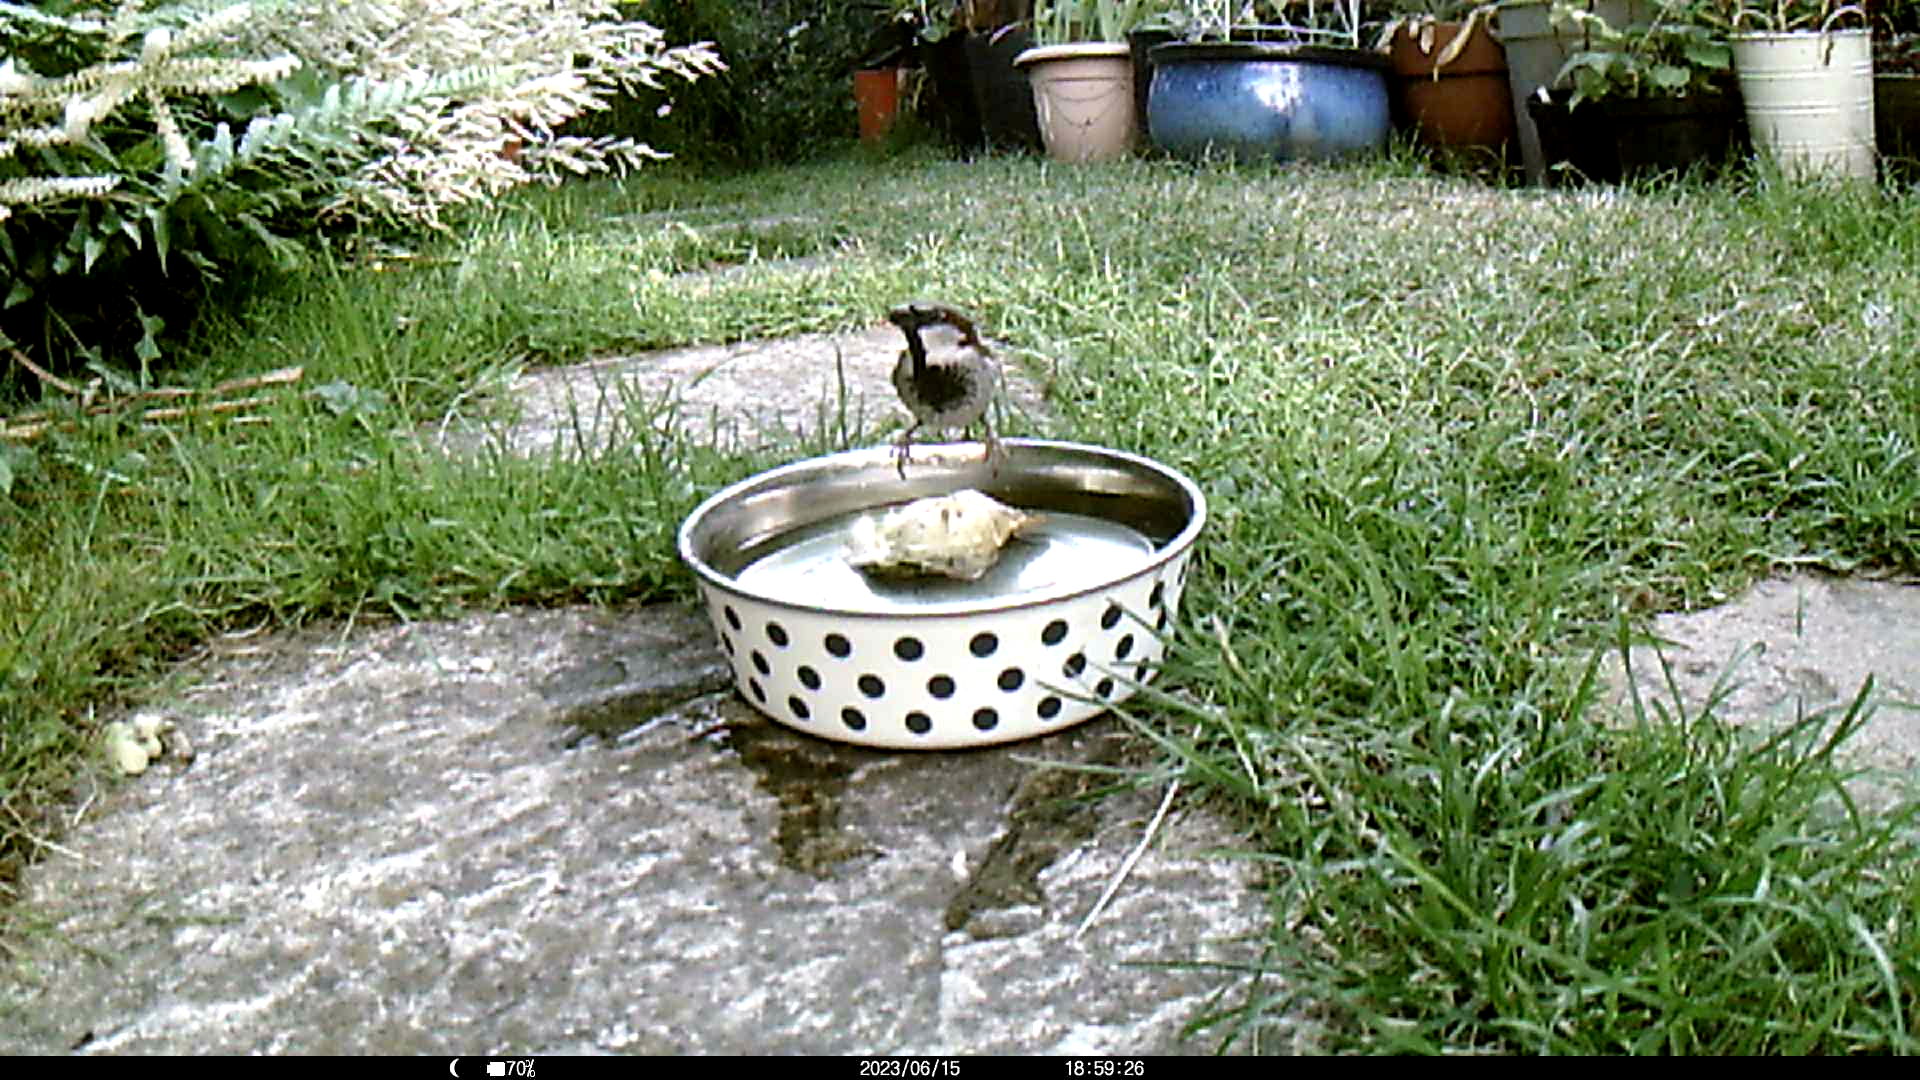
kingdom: Animalia
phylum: Chordata
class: Aves
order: Passeriformes
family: Passeridae
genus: Passer
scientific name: Passer domesticus
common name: House sparrow
